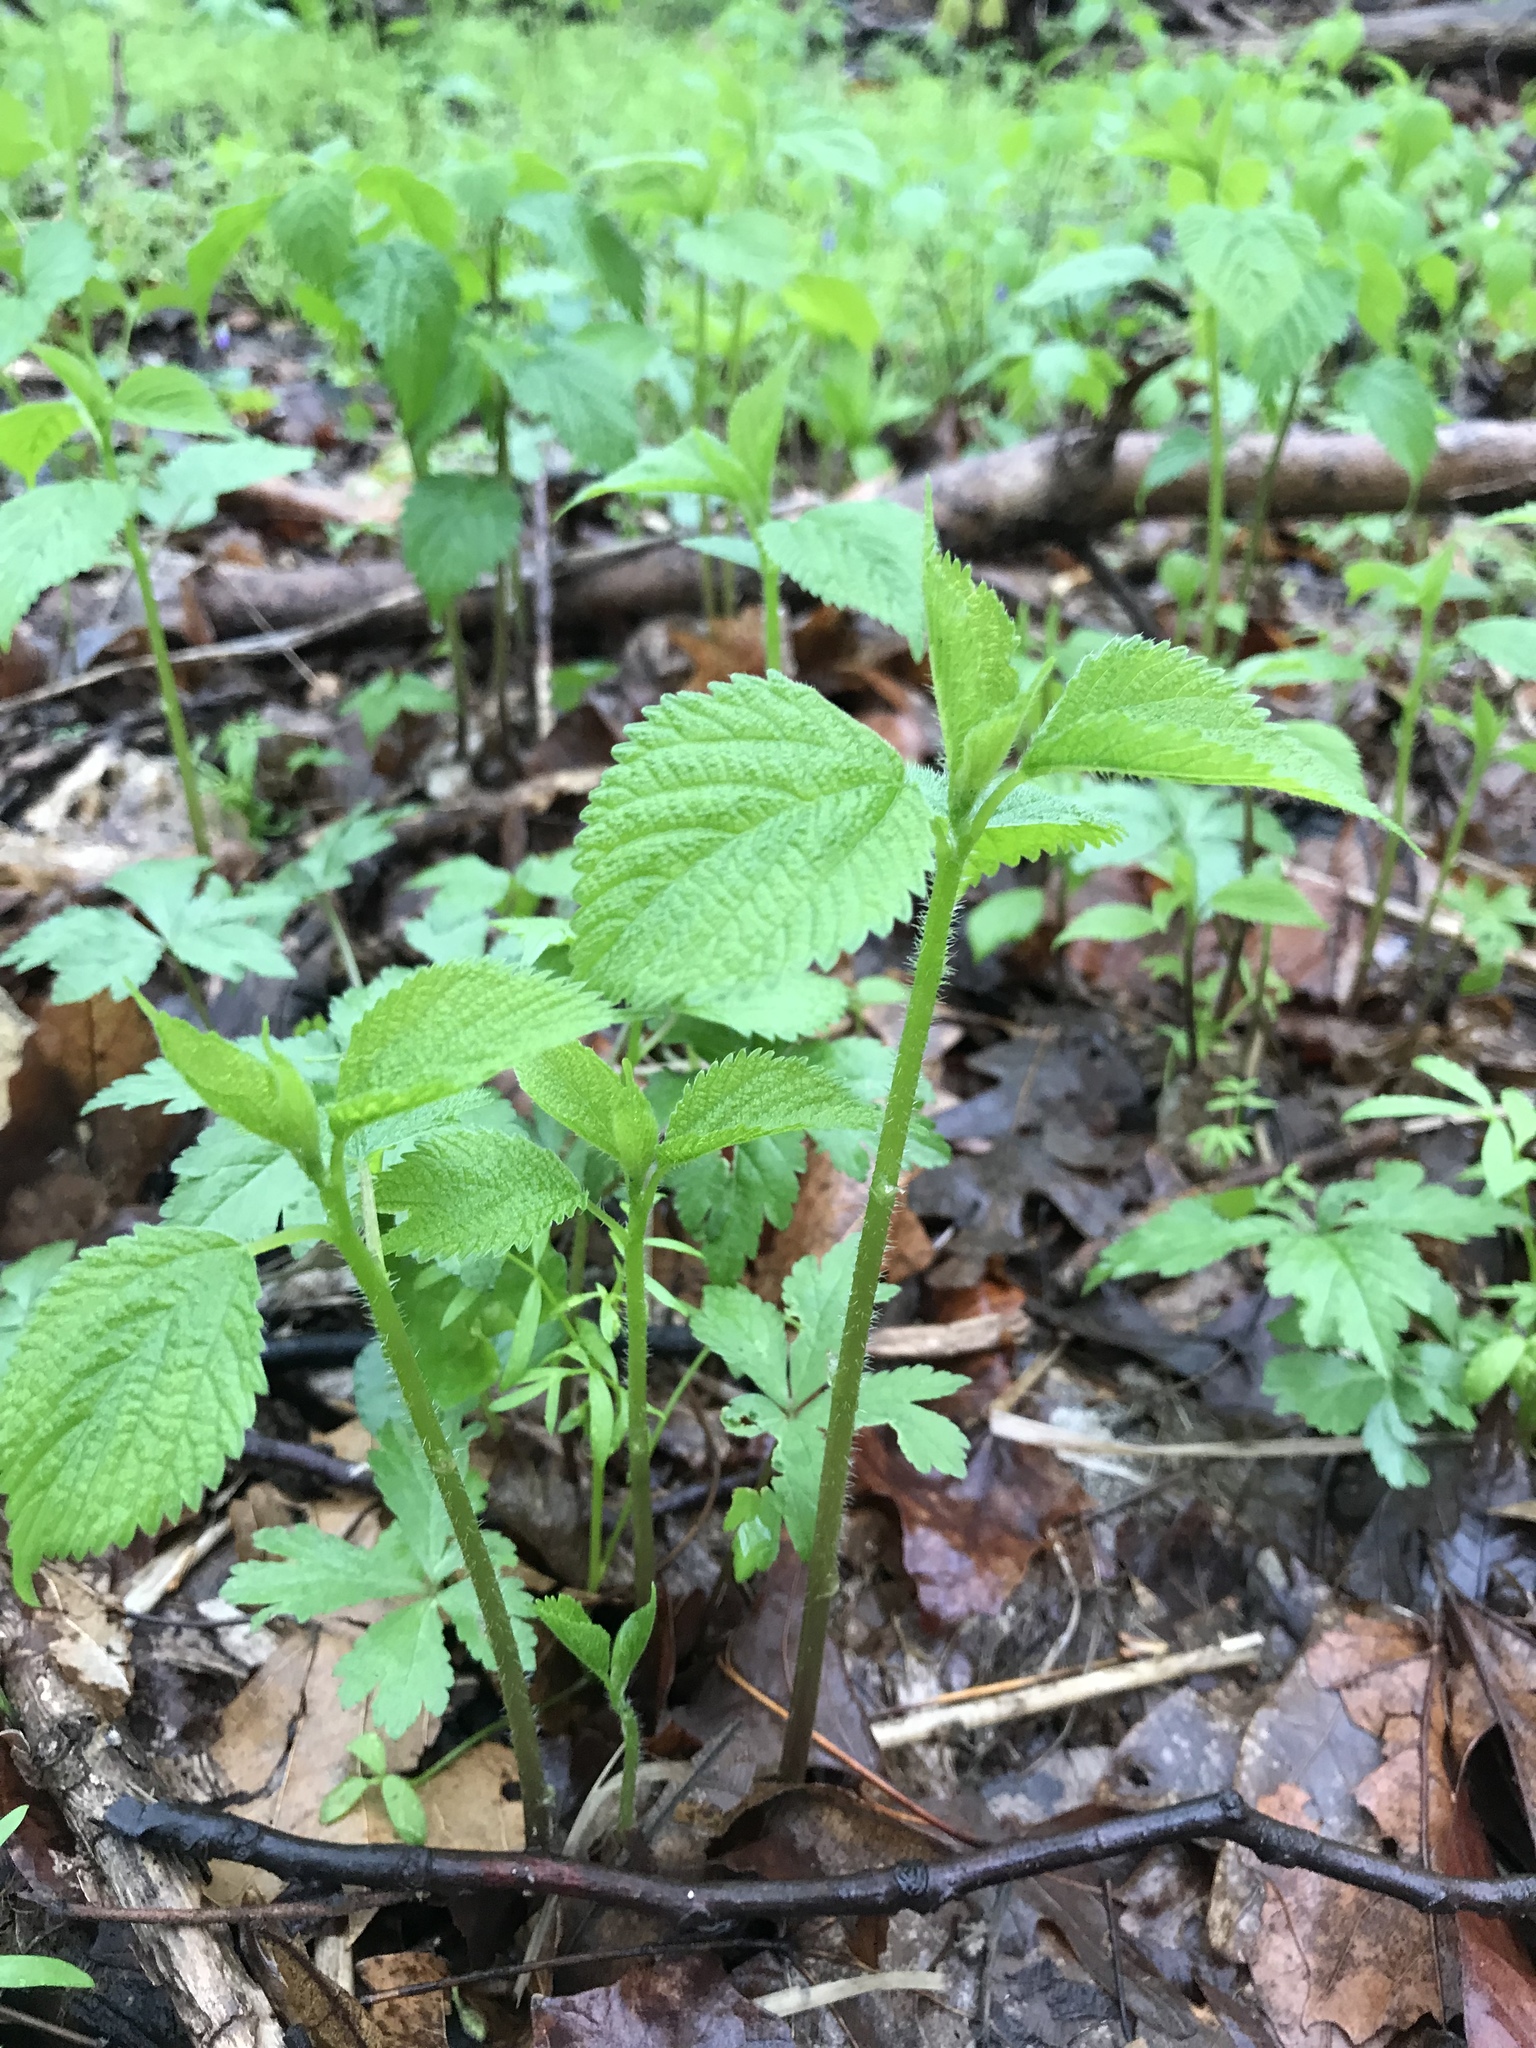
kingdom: Plantae
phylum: Tracheophyta
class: Magnoliopsida
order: Rosales
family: Urticaceae
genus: Laportea
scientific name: Laportea canadensis
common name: Canada nettle
